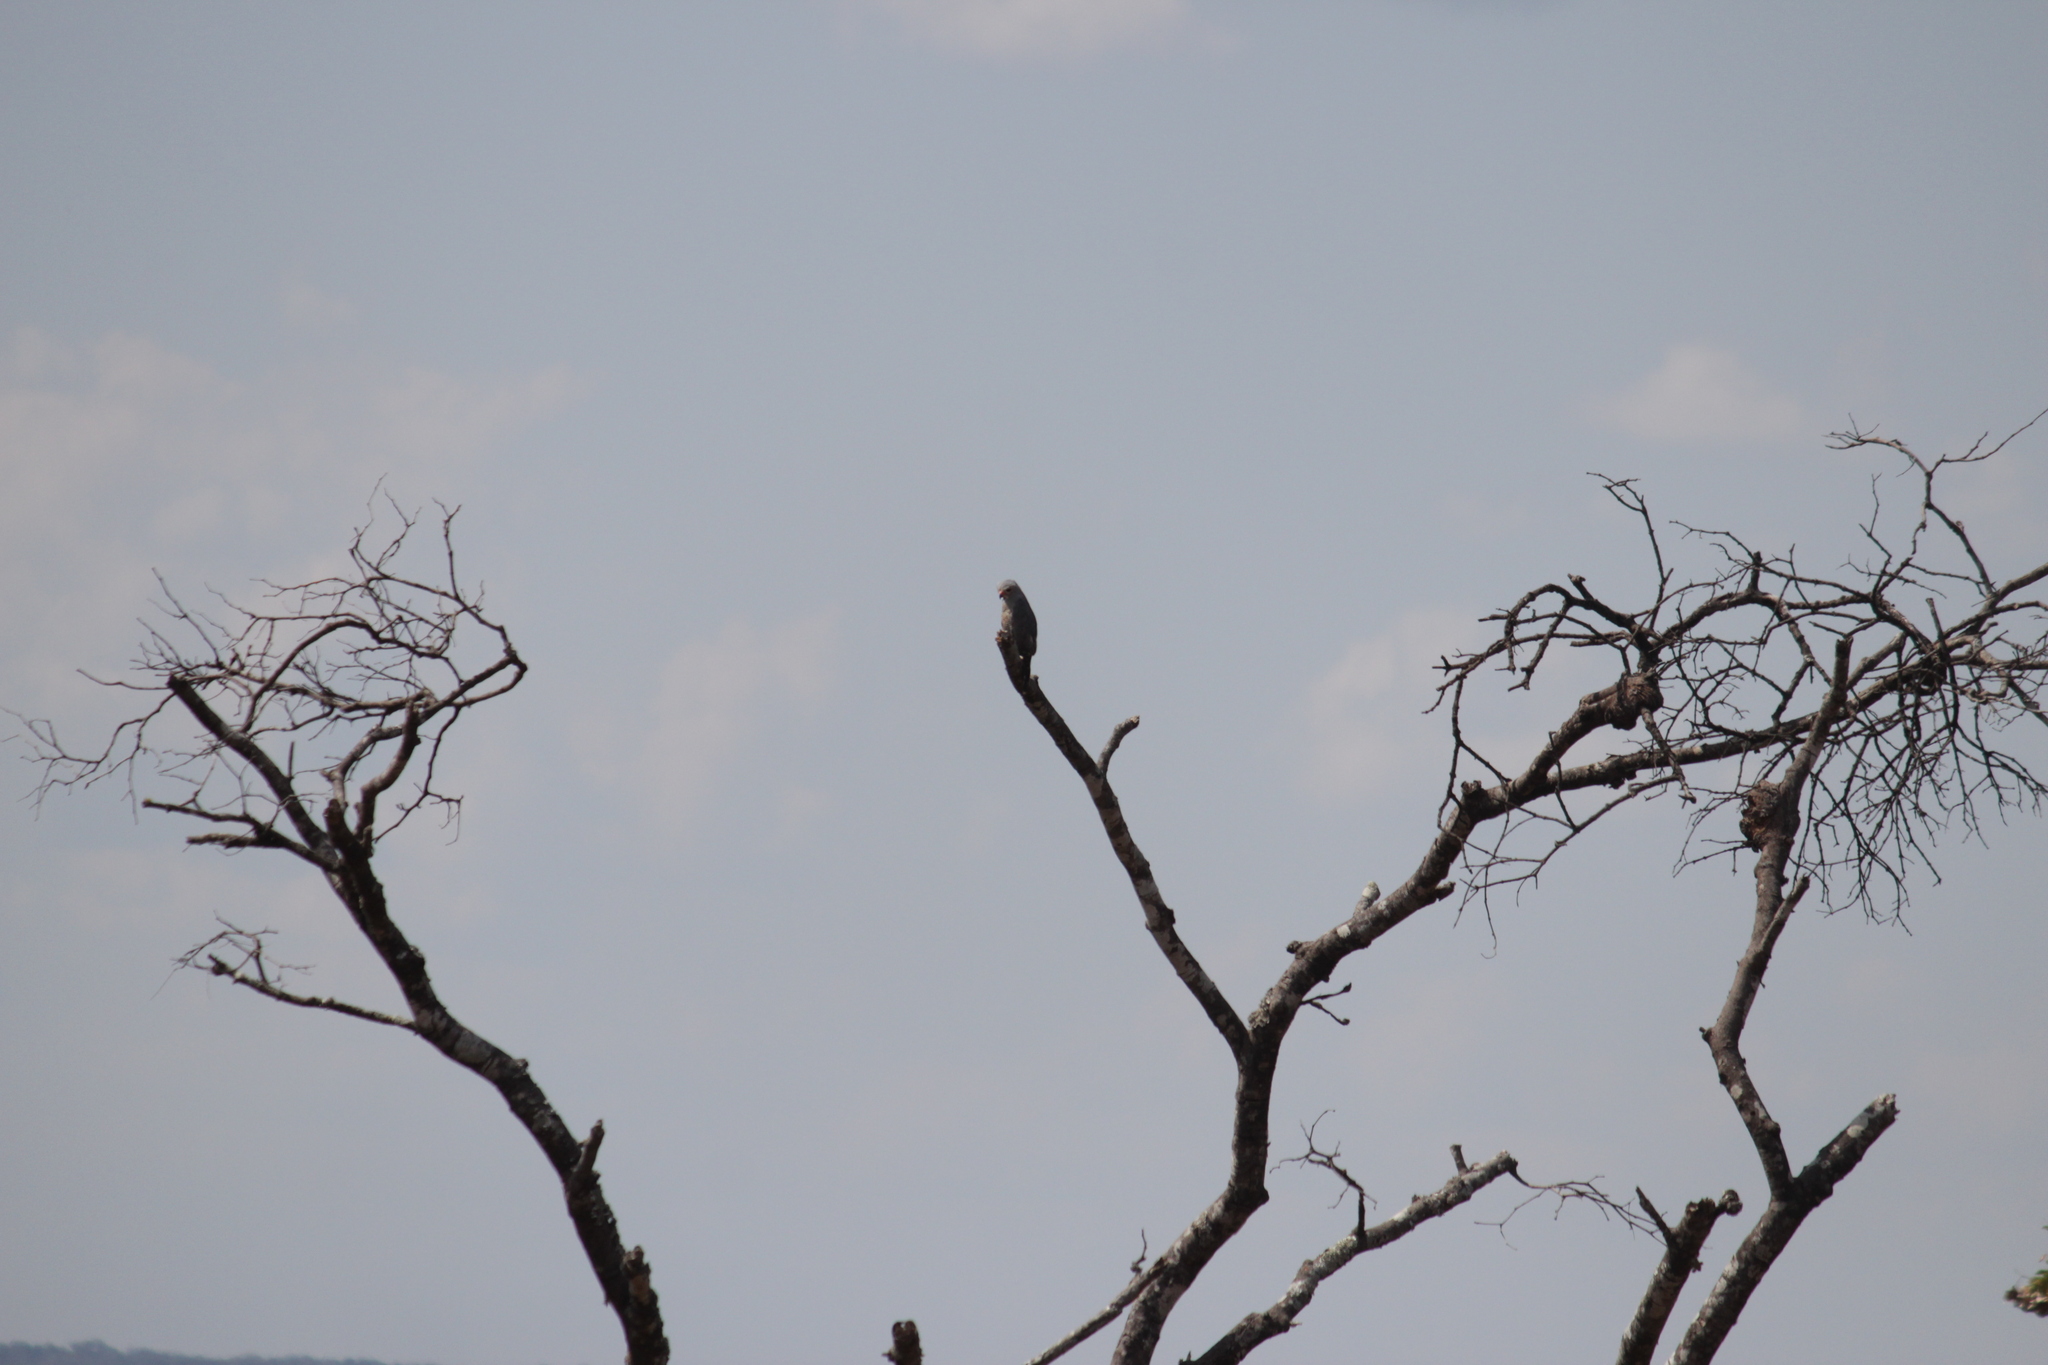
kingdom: Animalia
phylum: Chordata
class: Aves
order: Accipitriformes
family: Accipitridae
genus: Kaupifalco
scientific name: Kaupifalco monogrammicus
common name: Lizard buzzard
